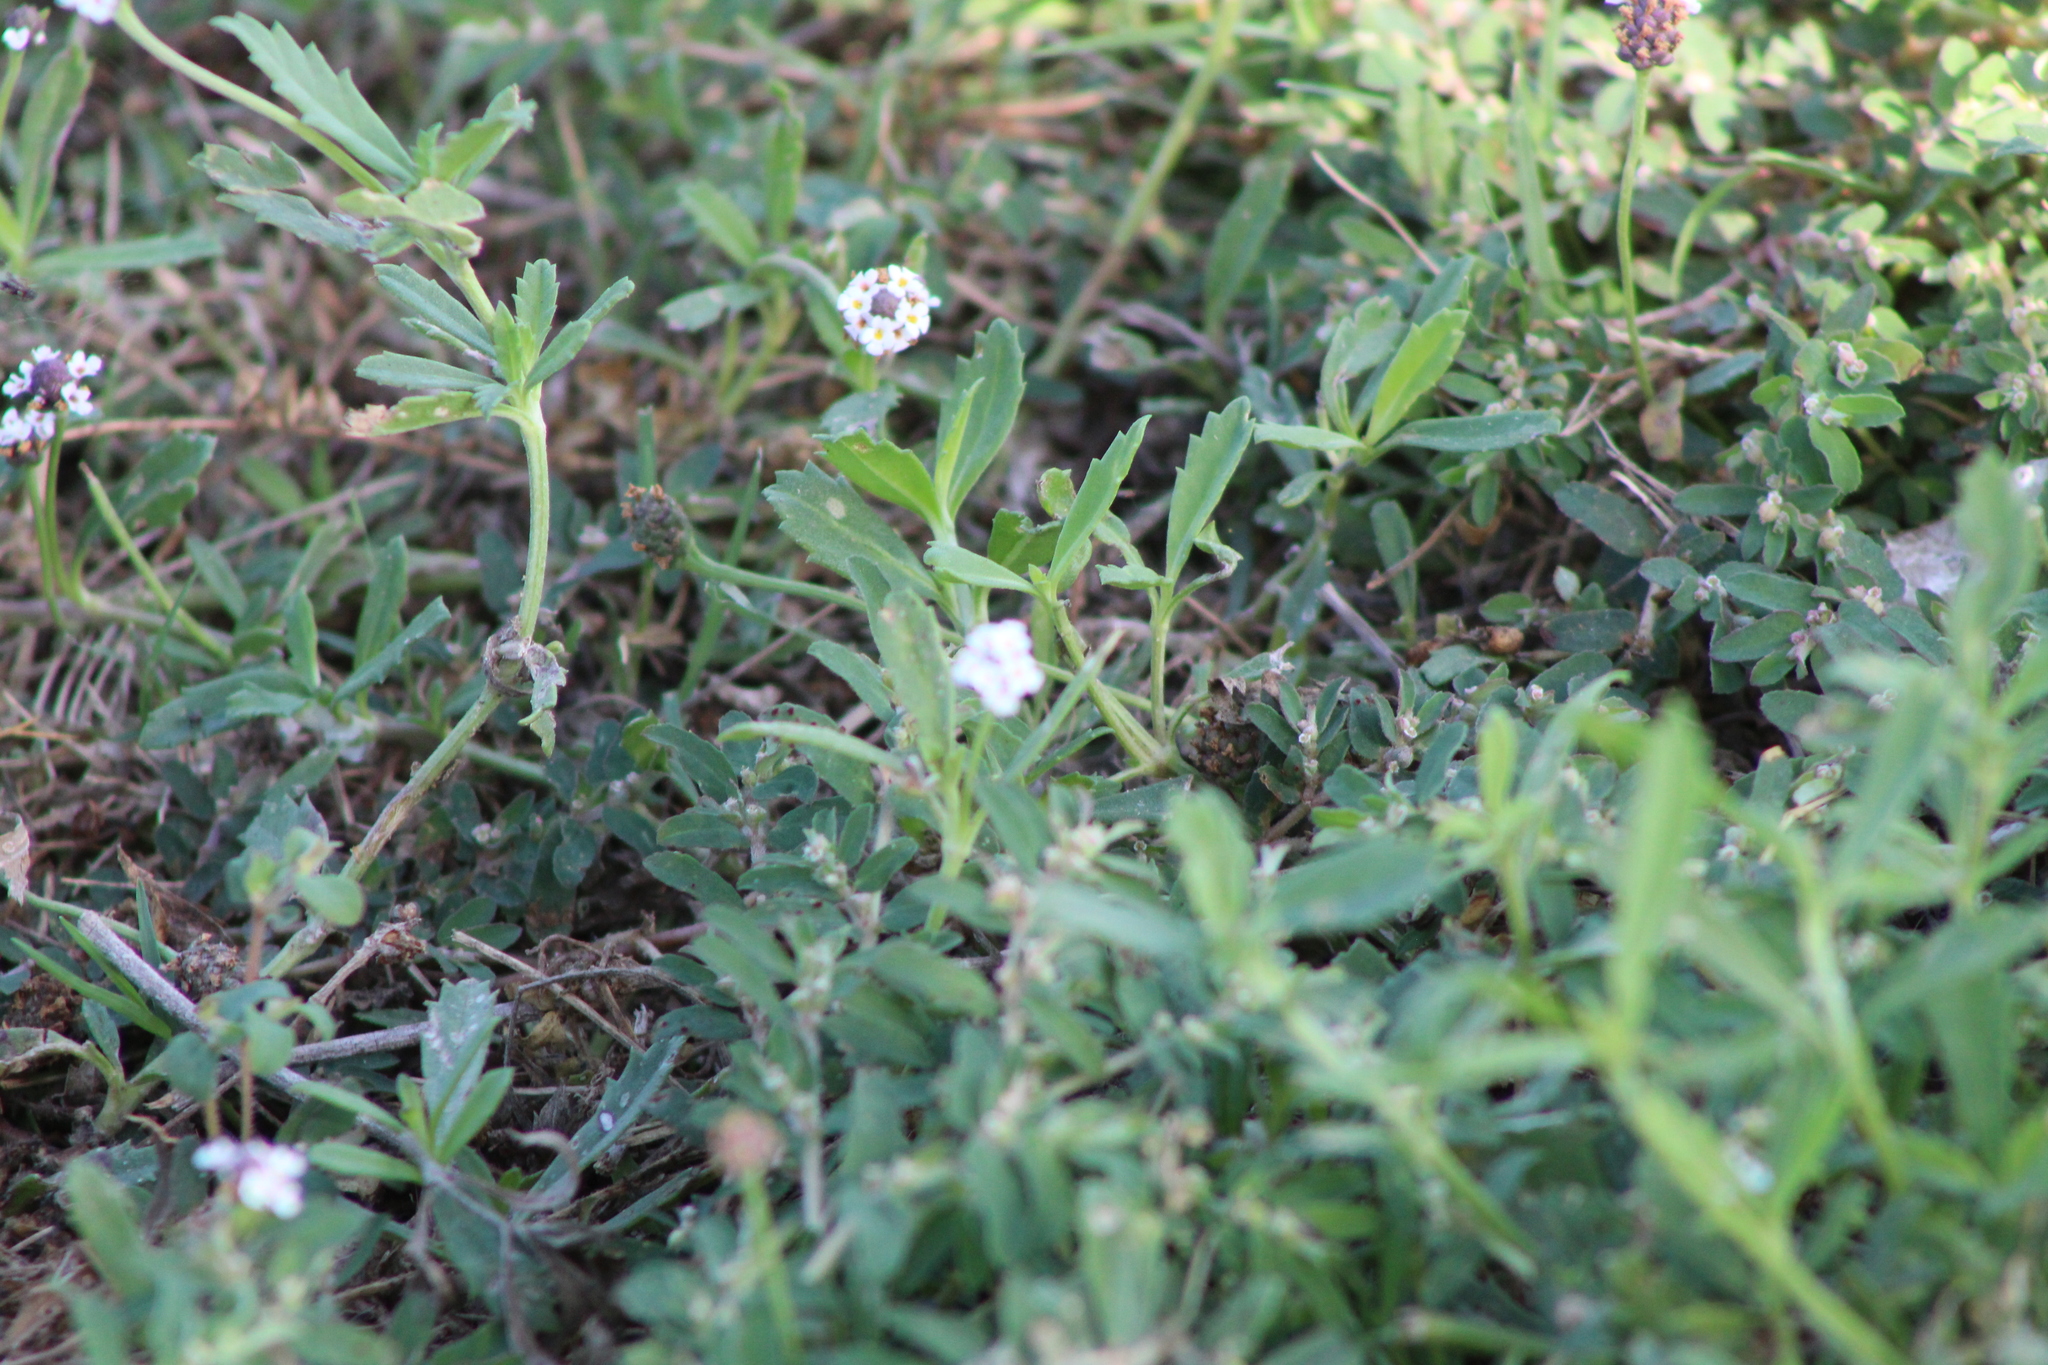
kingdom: Plantae
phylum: Tracheophyta
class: Magnoliopsida
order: Lamiales
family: Verbenaceae
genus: Phyla
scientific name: Phyla nodiflora
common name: Frogfruit
